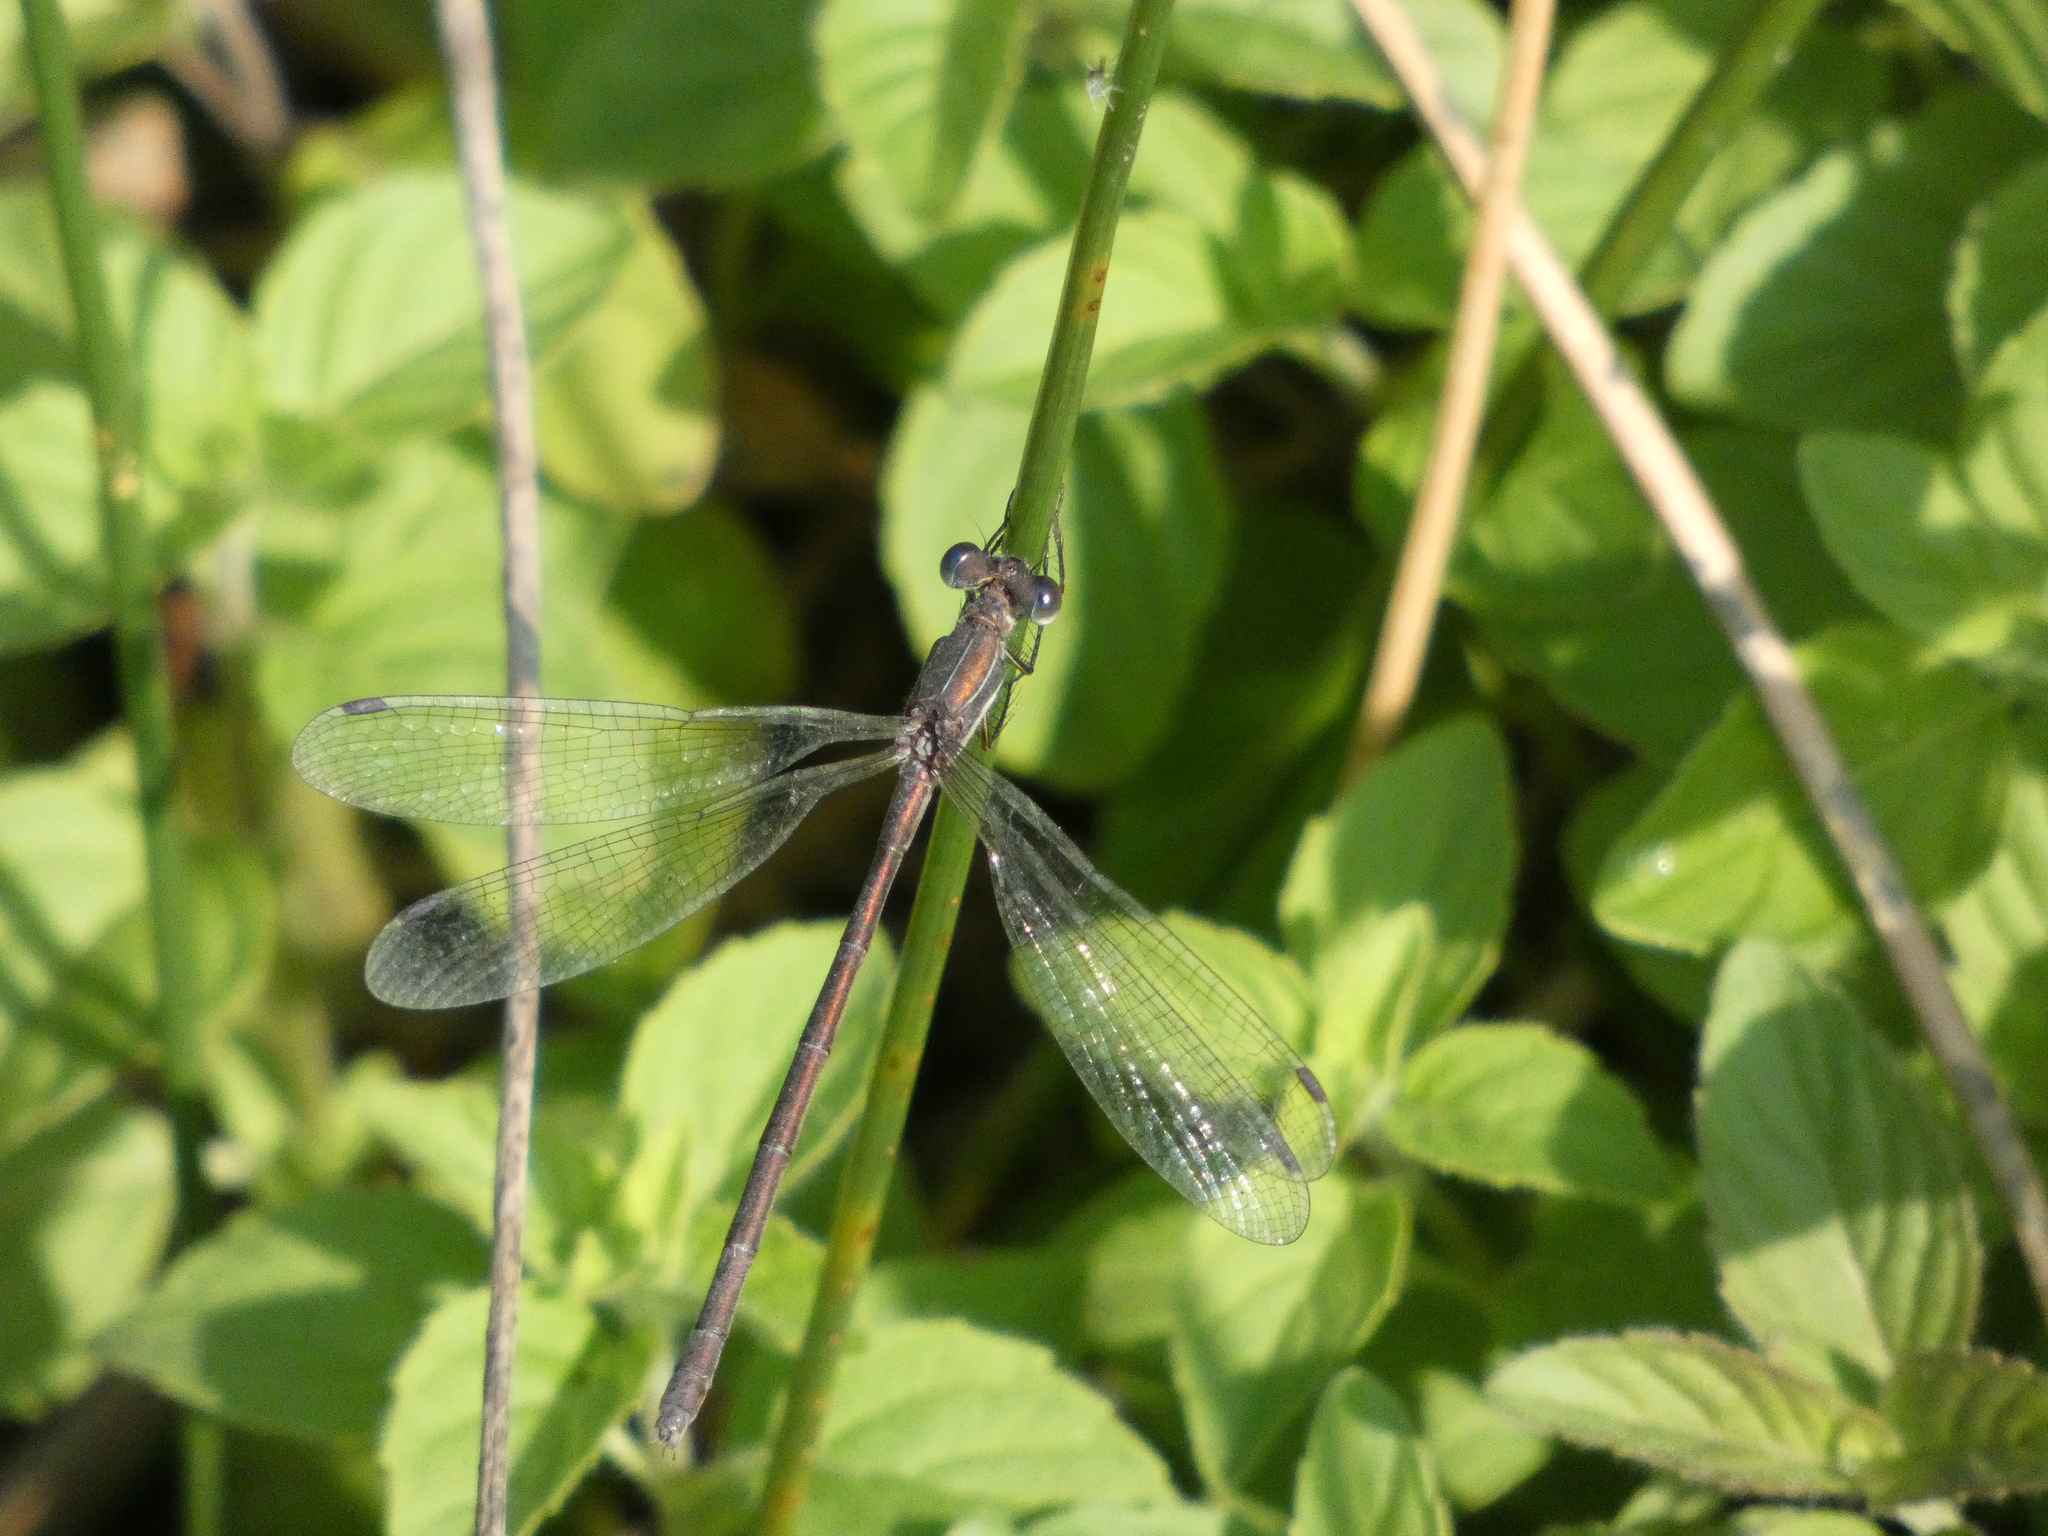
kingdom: Animalia
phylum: Arthropoda
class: Insecta
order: Odonata
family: Lestidae
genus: Lestes
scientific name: Lestes dryas
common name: Scarce emerald damselfly
